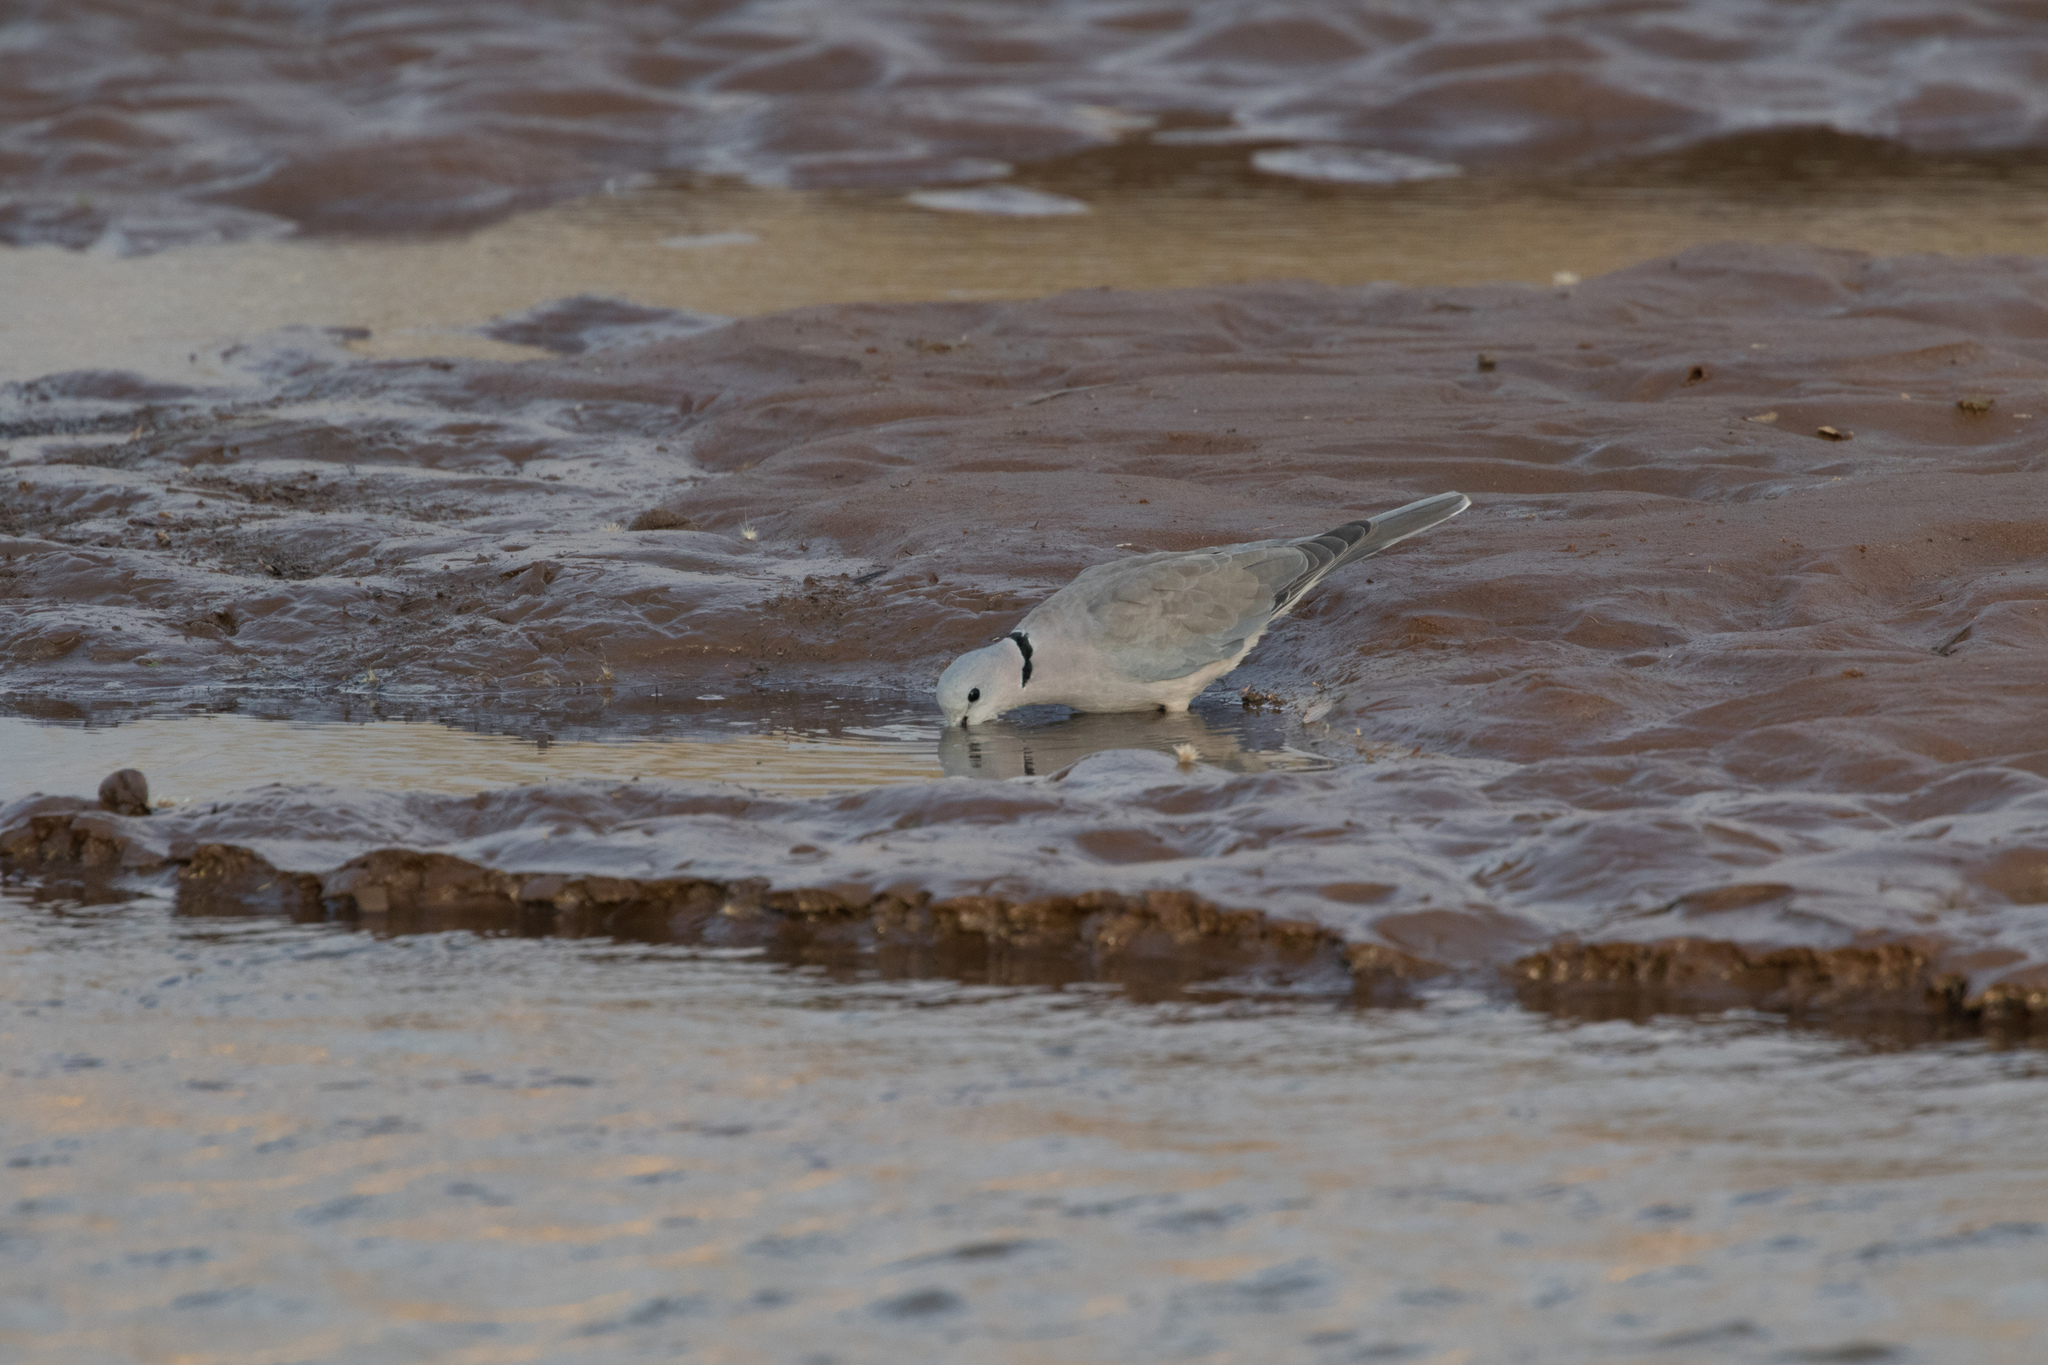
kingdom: Animalia
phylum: Chordata
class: Aves
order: Columbiformes
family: Columbidae
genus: Streptopelia
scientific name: Streptopelia capicola
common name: Ring-necked dove
